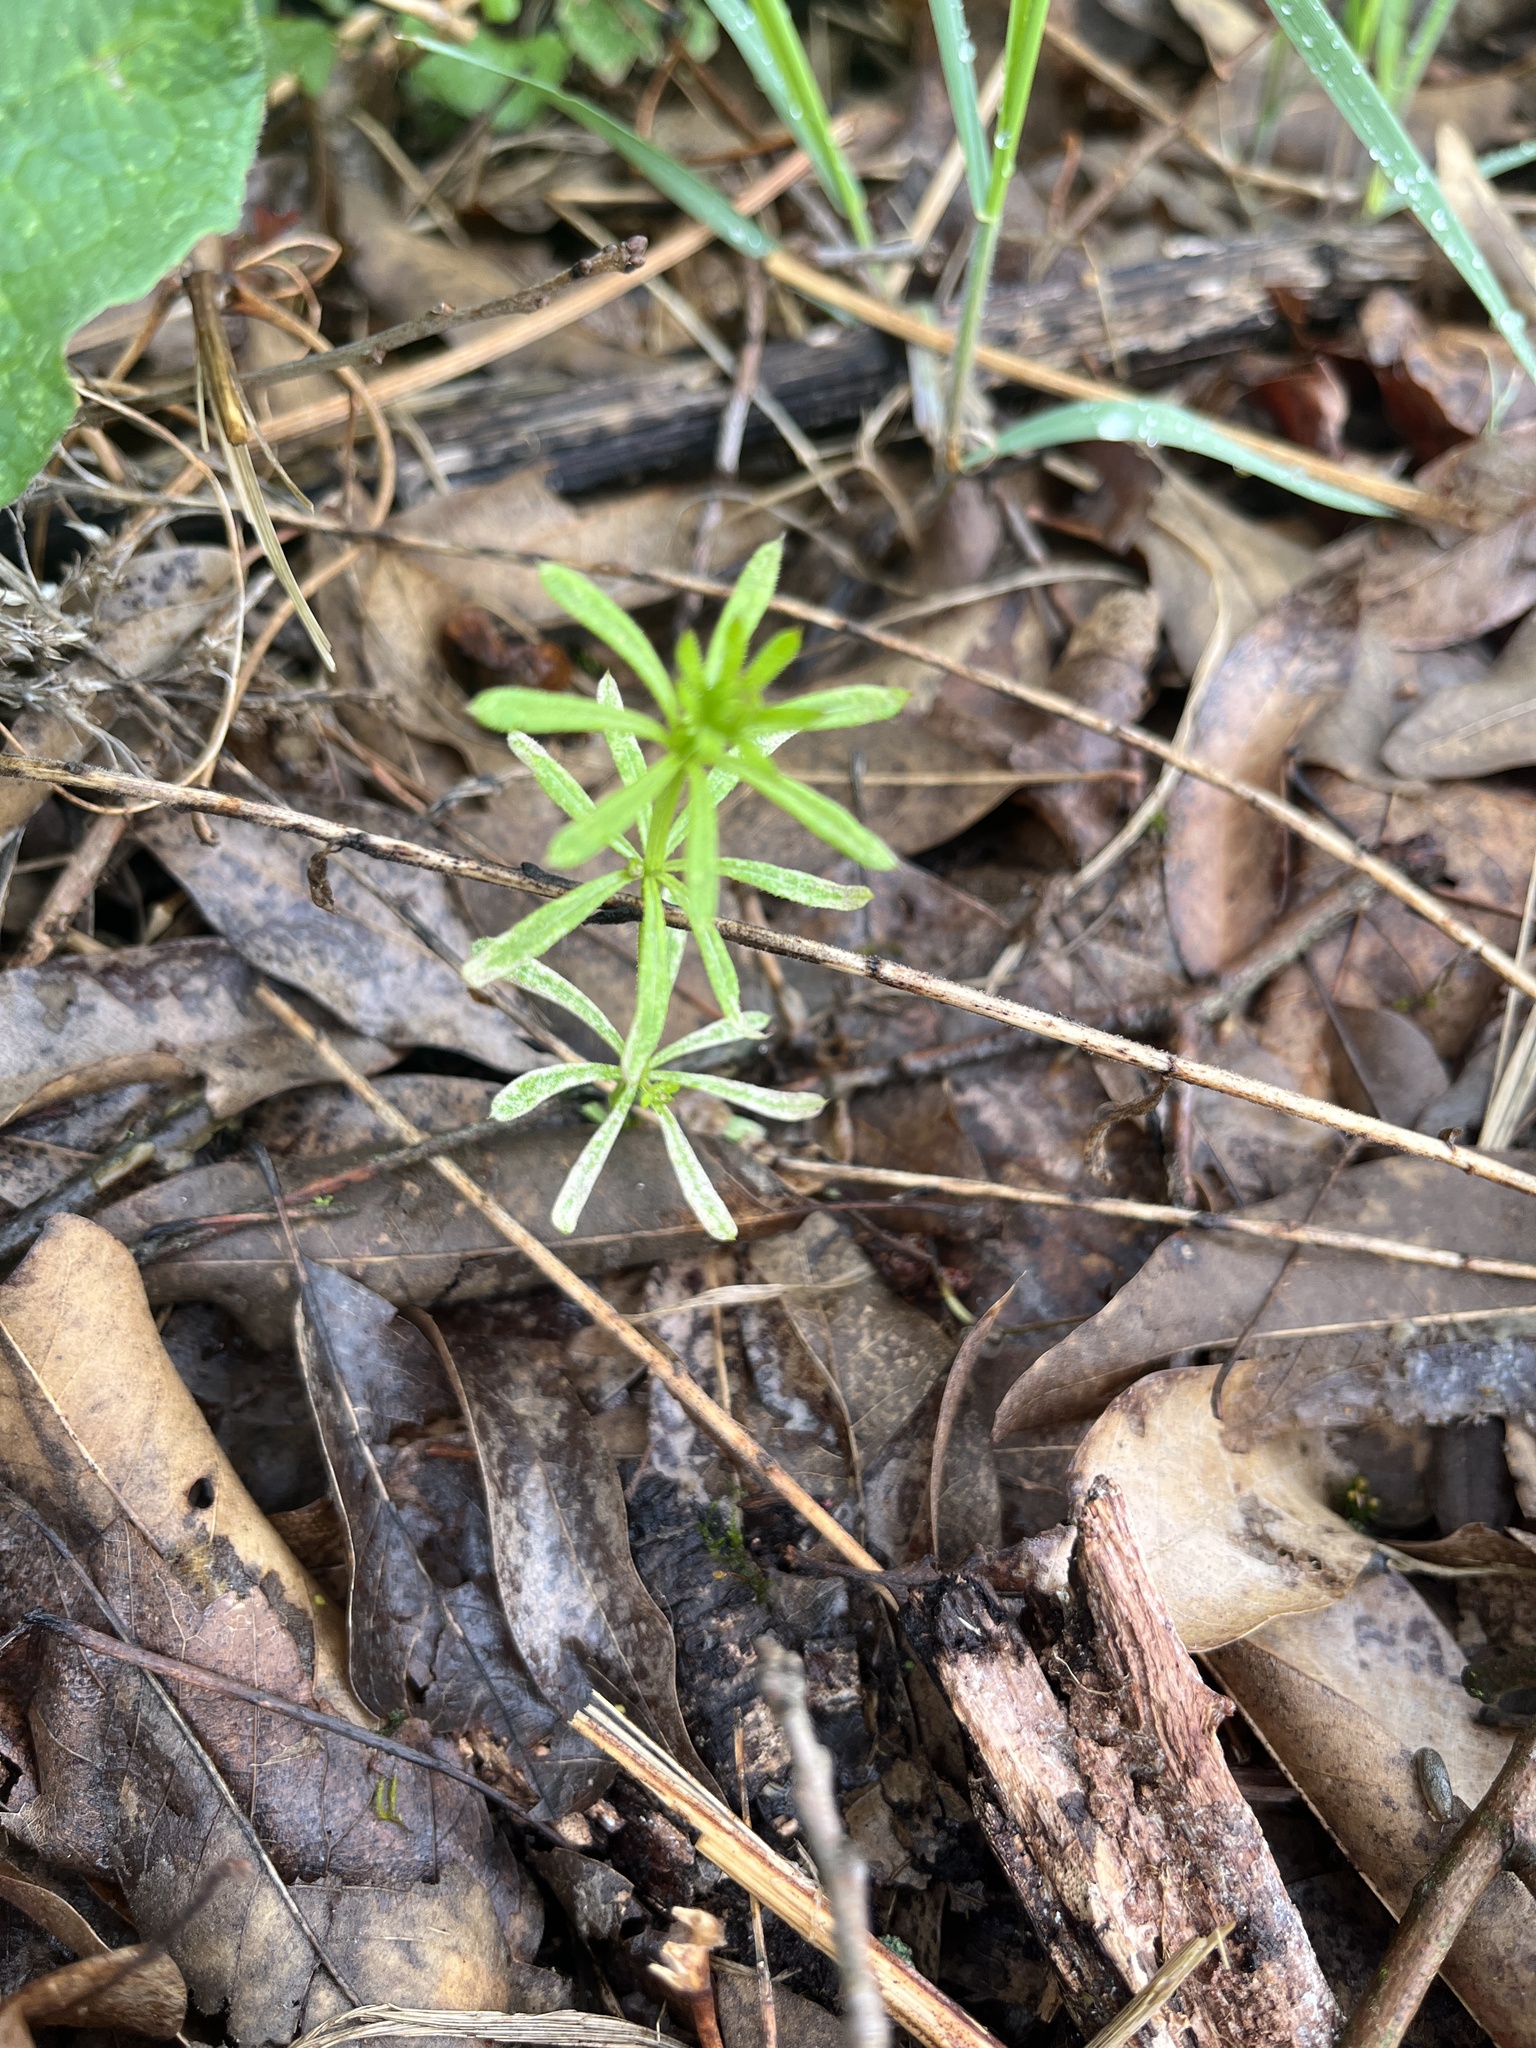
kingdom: Plantae
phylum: Tracheophyta
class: Magnoliopsida
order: Gentianales
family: Rubiaceae
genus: Galium
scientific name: Galium aparine
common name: Cleavers
